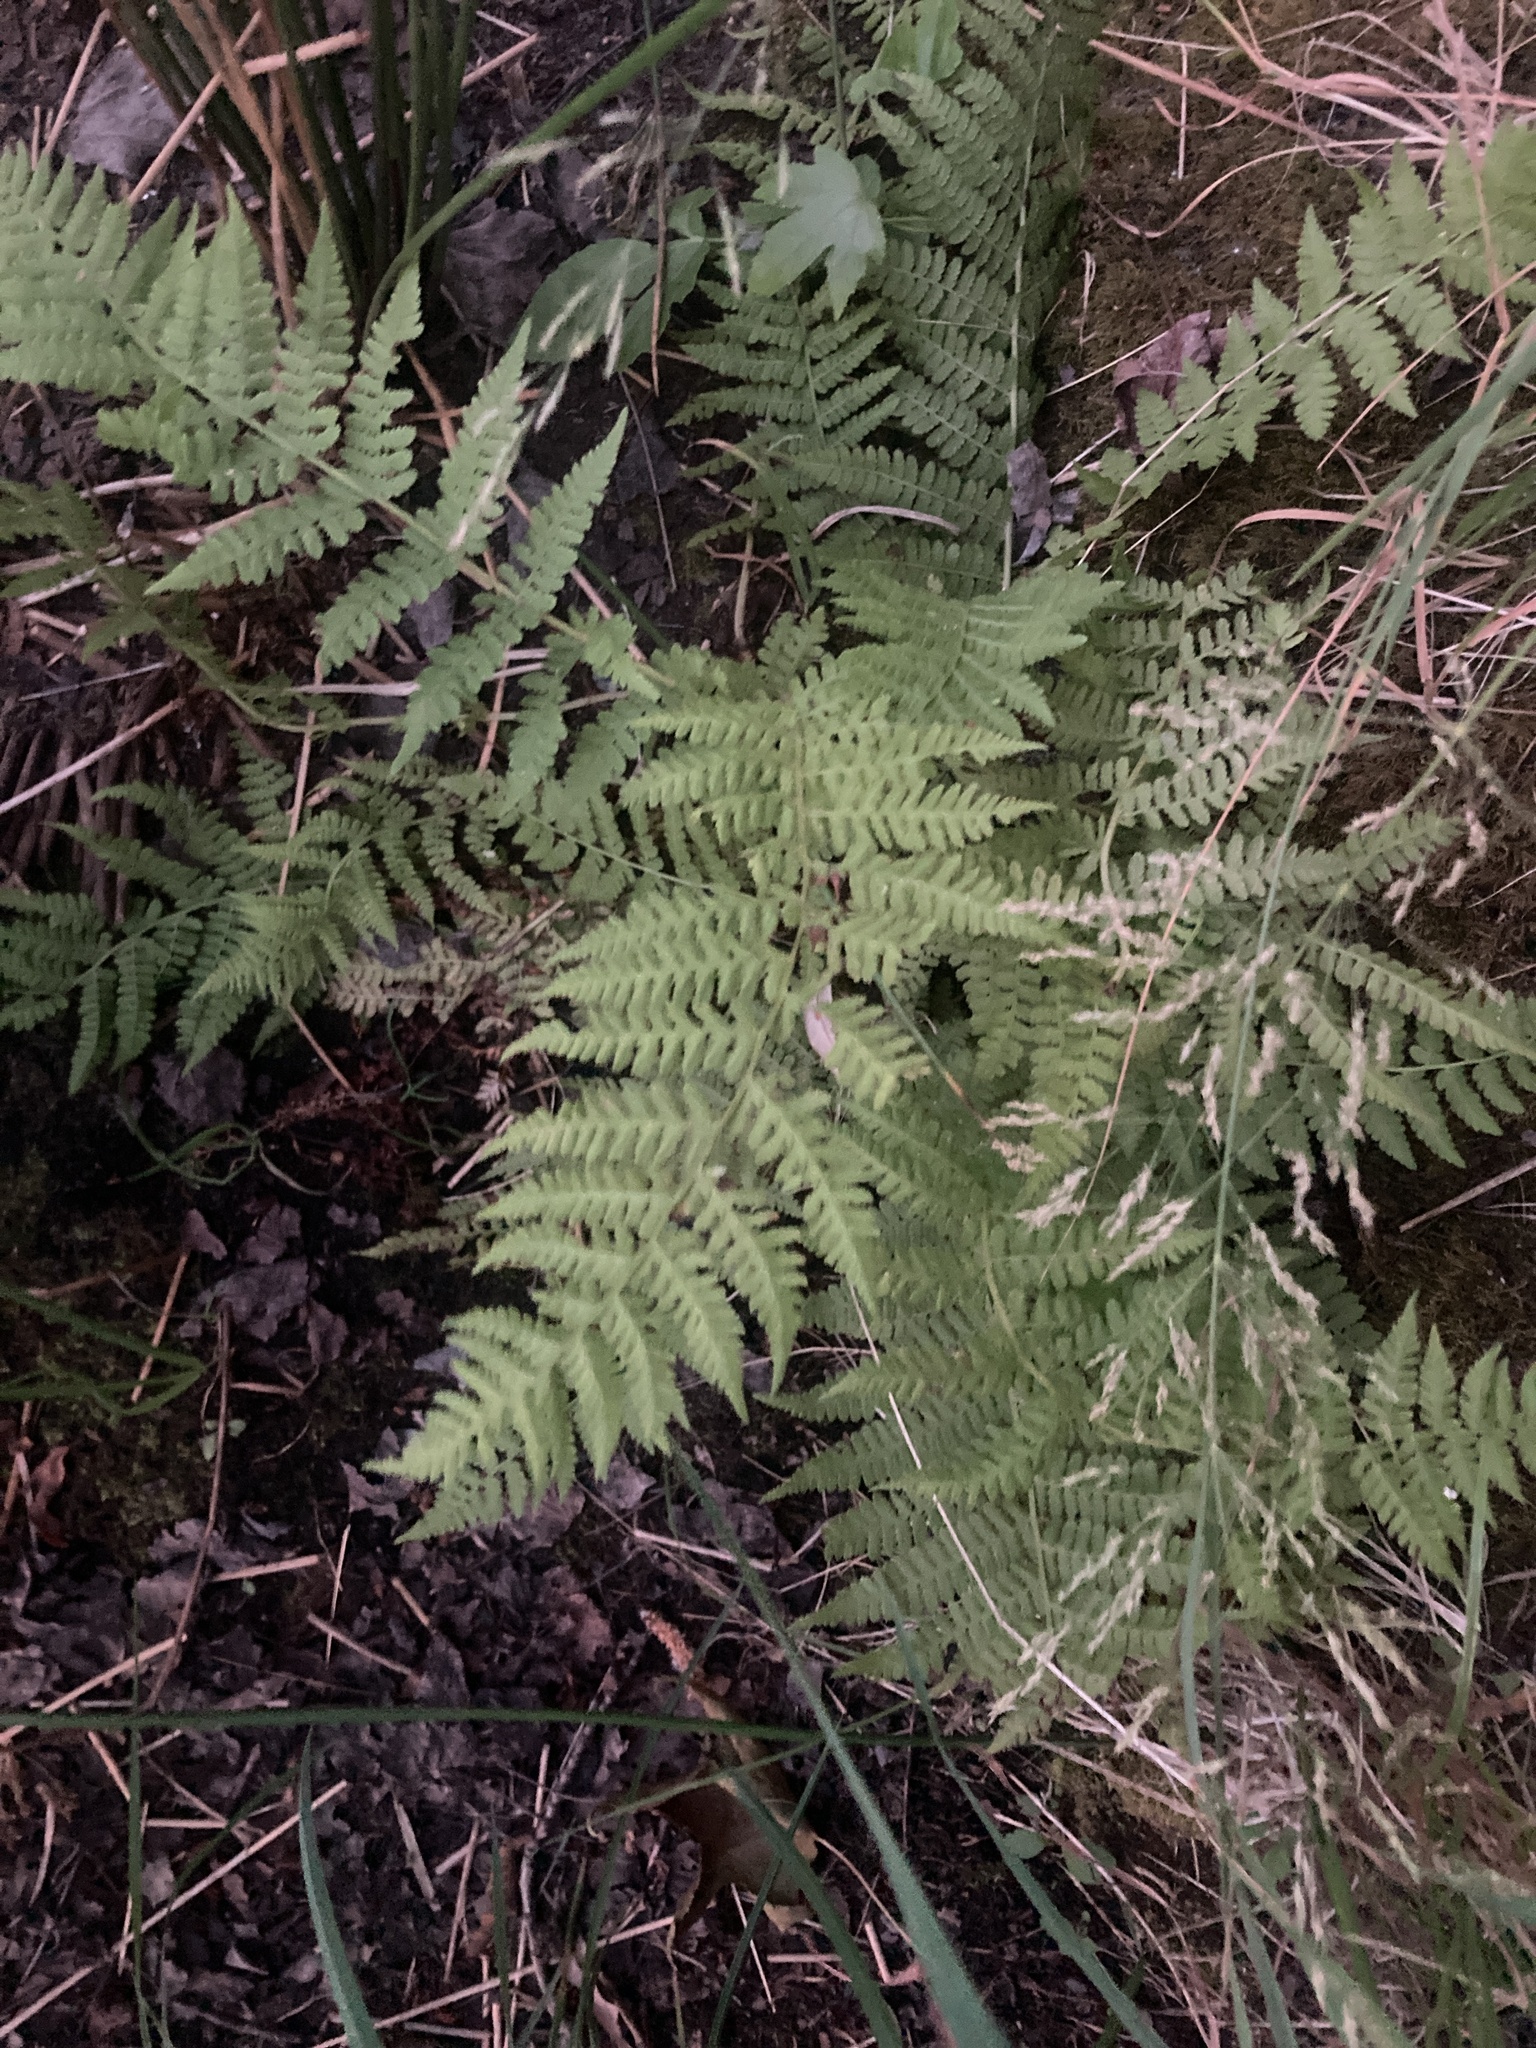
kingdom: Plantae
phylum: Tracheophyta
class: Polypodiopsida
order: Polypodiales
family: Athyriaceae
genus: Athyrium
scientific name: Athyrium filix-femina
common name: Lady fern
